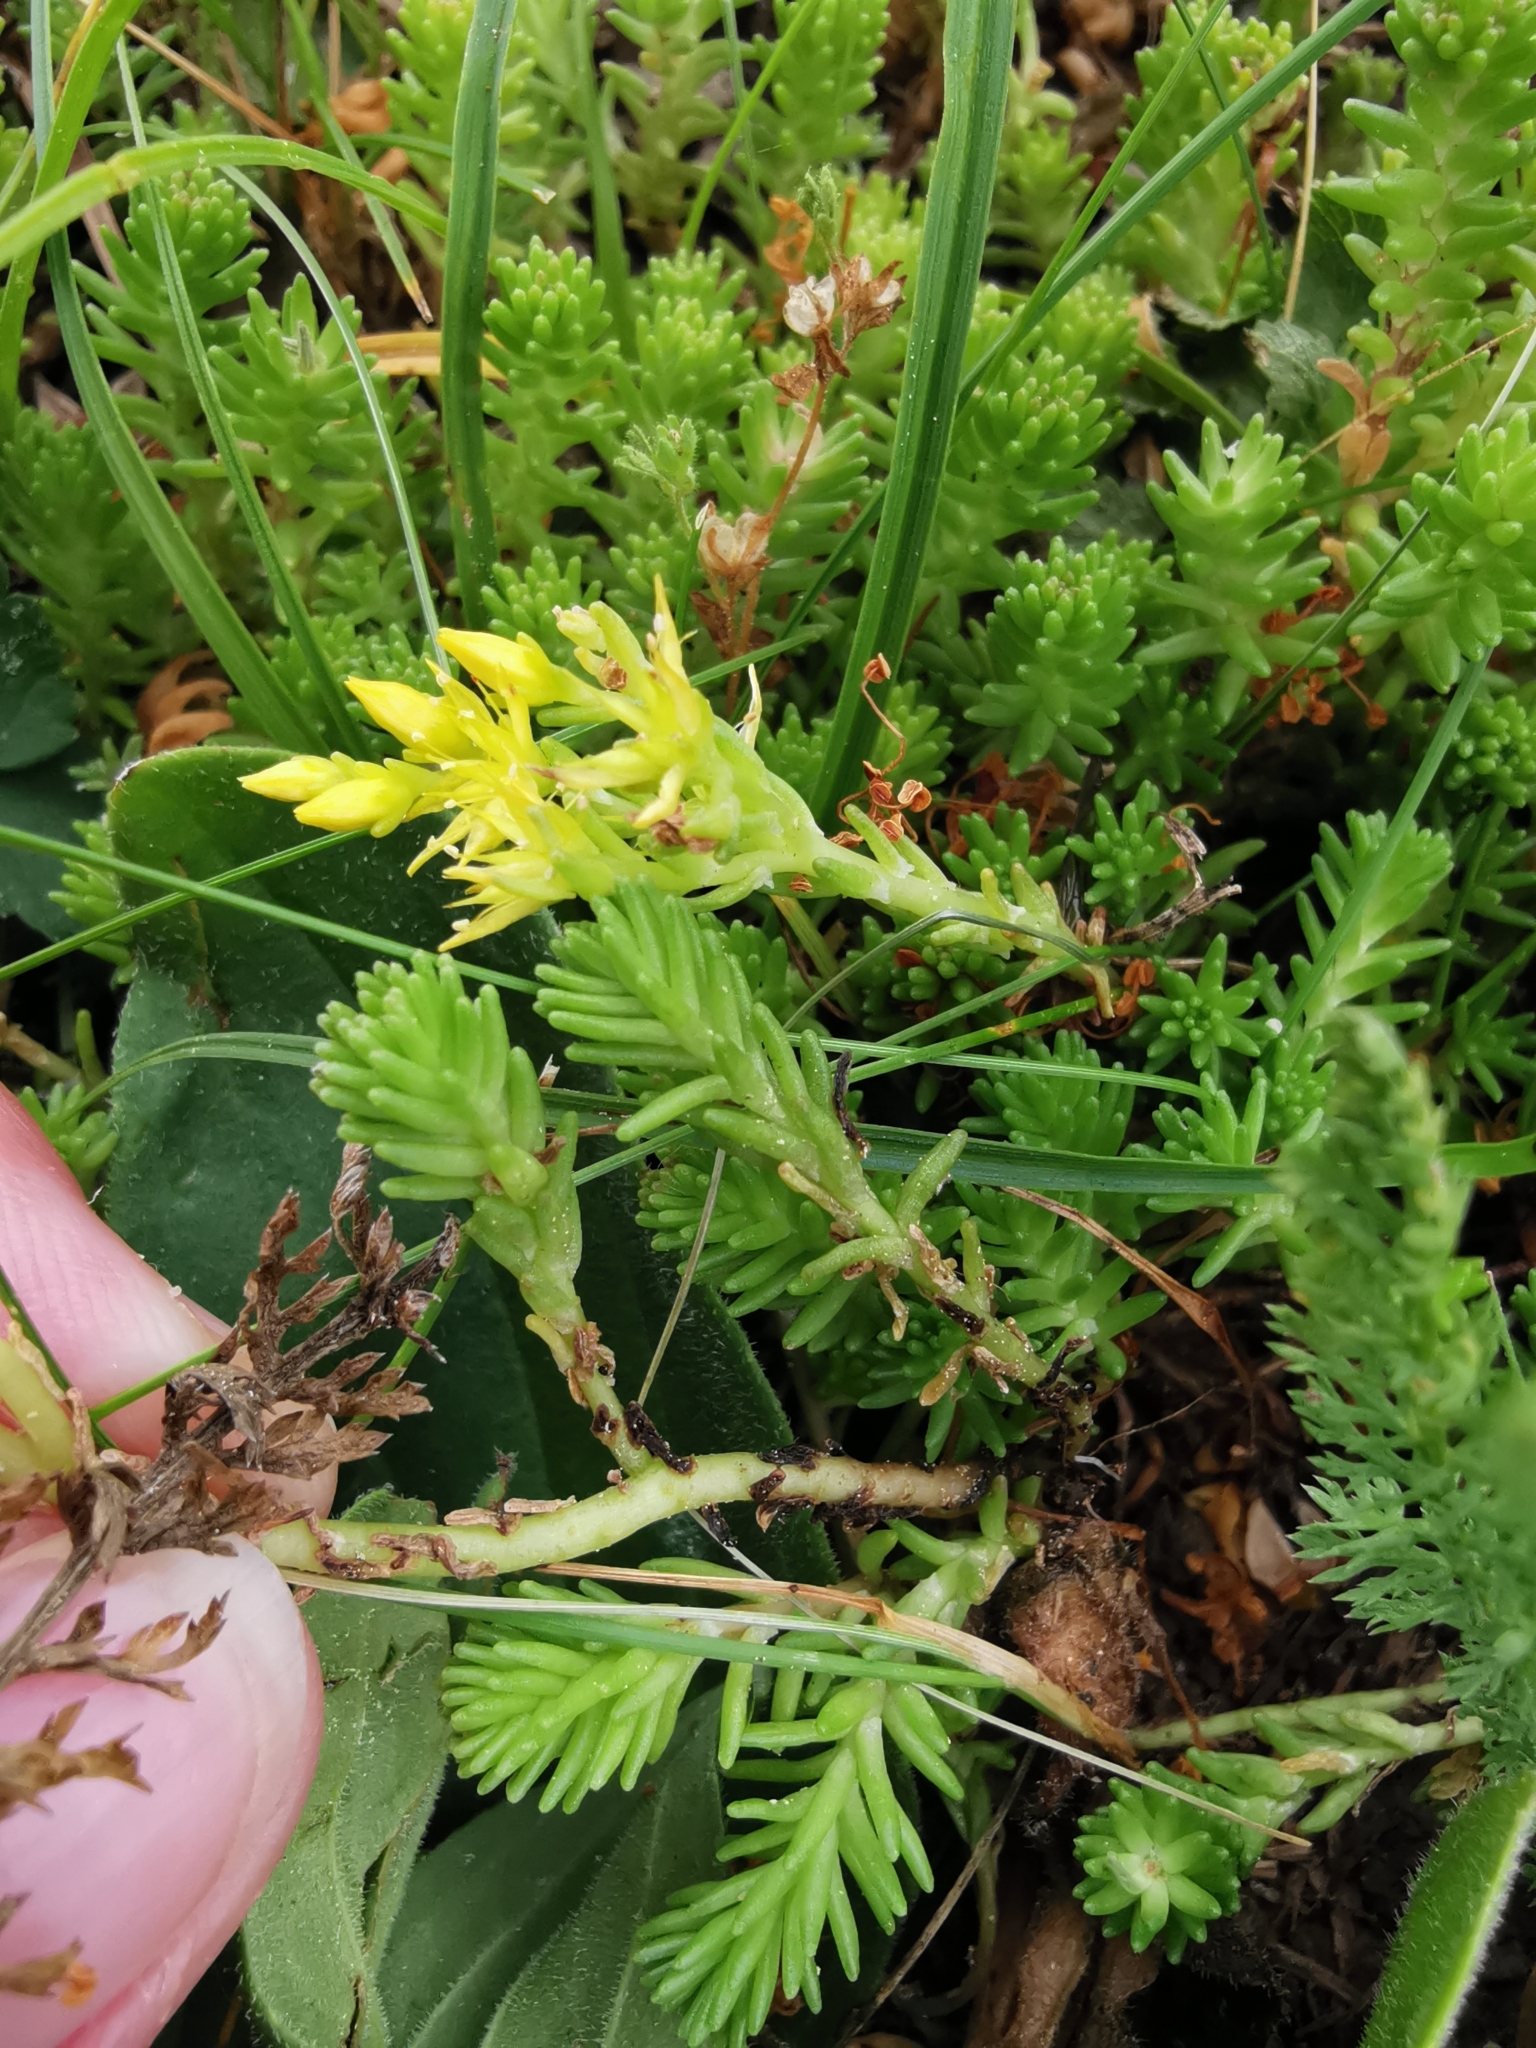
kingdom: Plantae
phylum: Tracheophyta
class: Magnoliopsida
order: Saxifragales
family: Crassulaceae
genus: Sedum
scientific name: Sedum sexangulare
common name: Tasteless stonecrop
